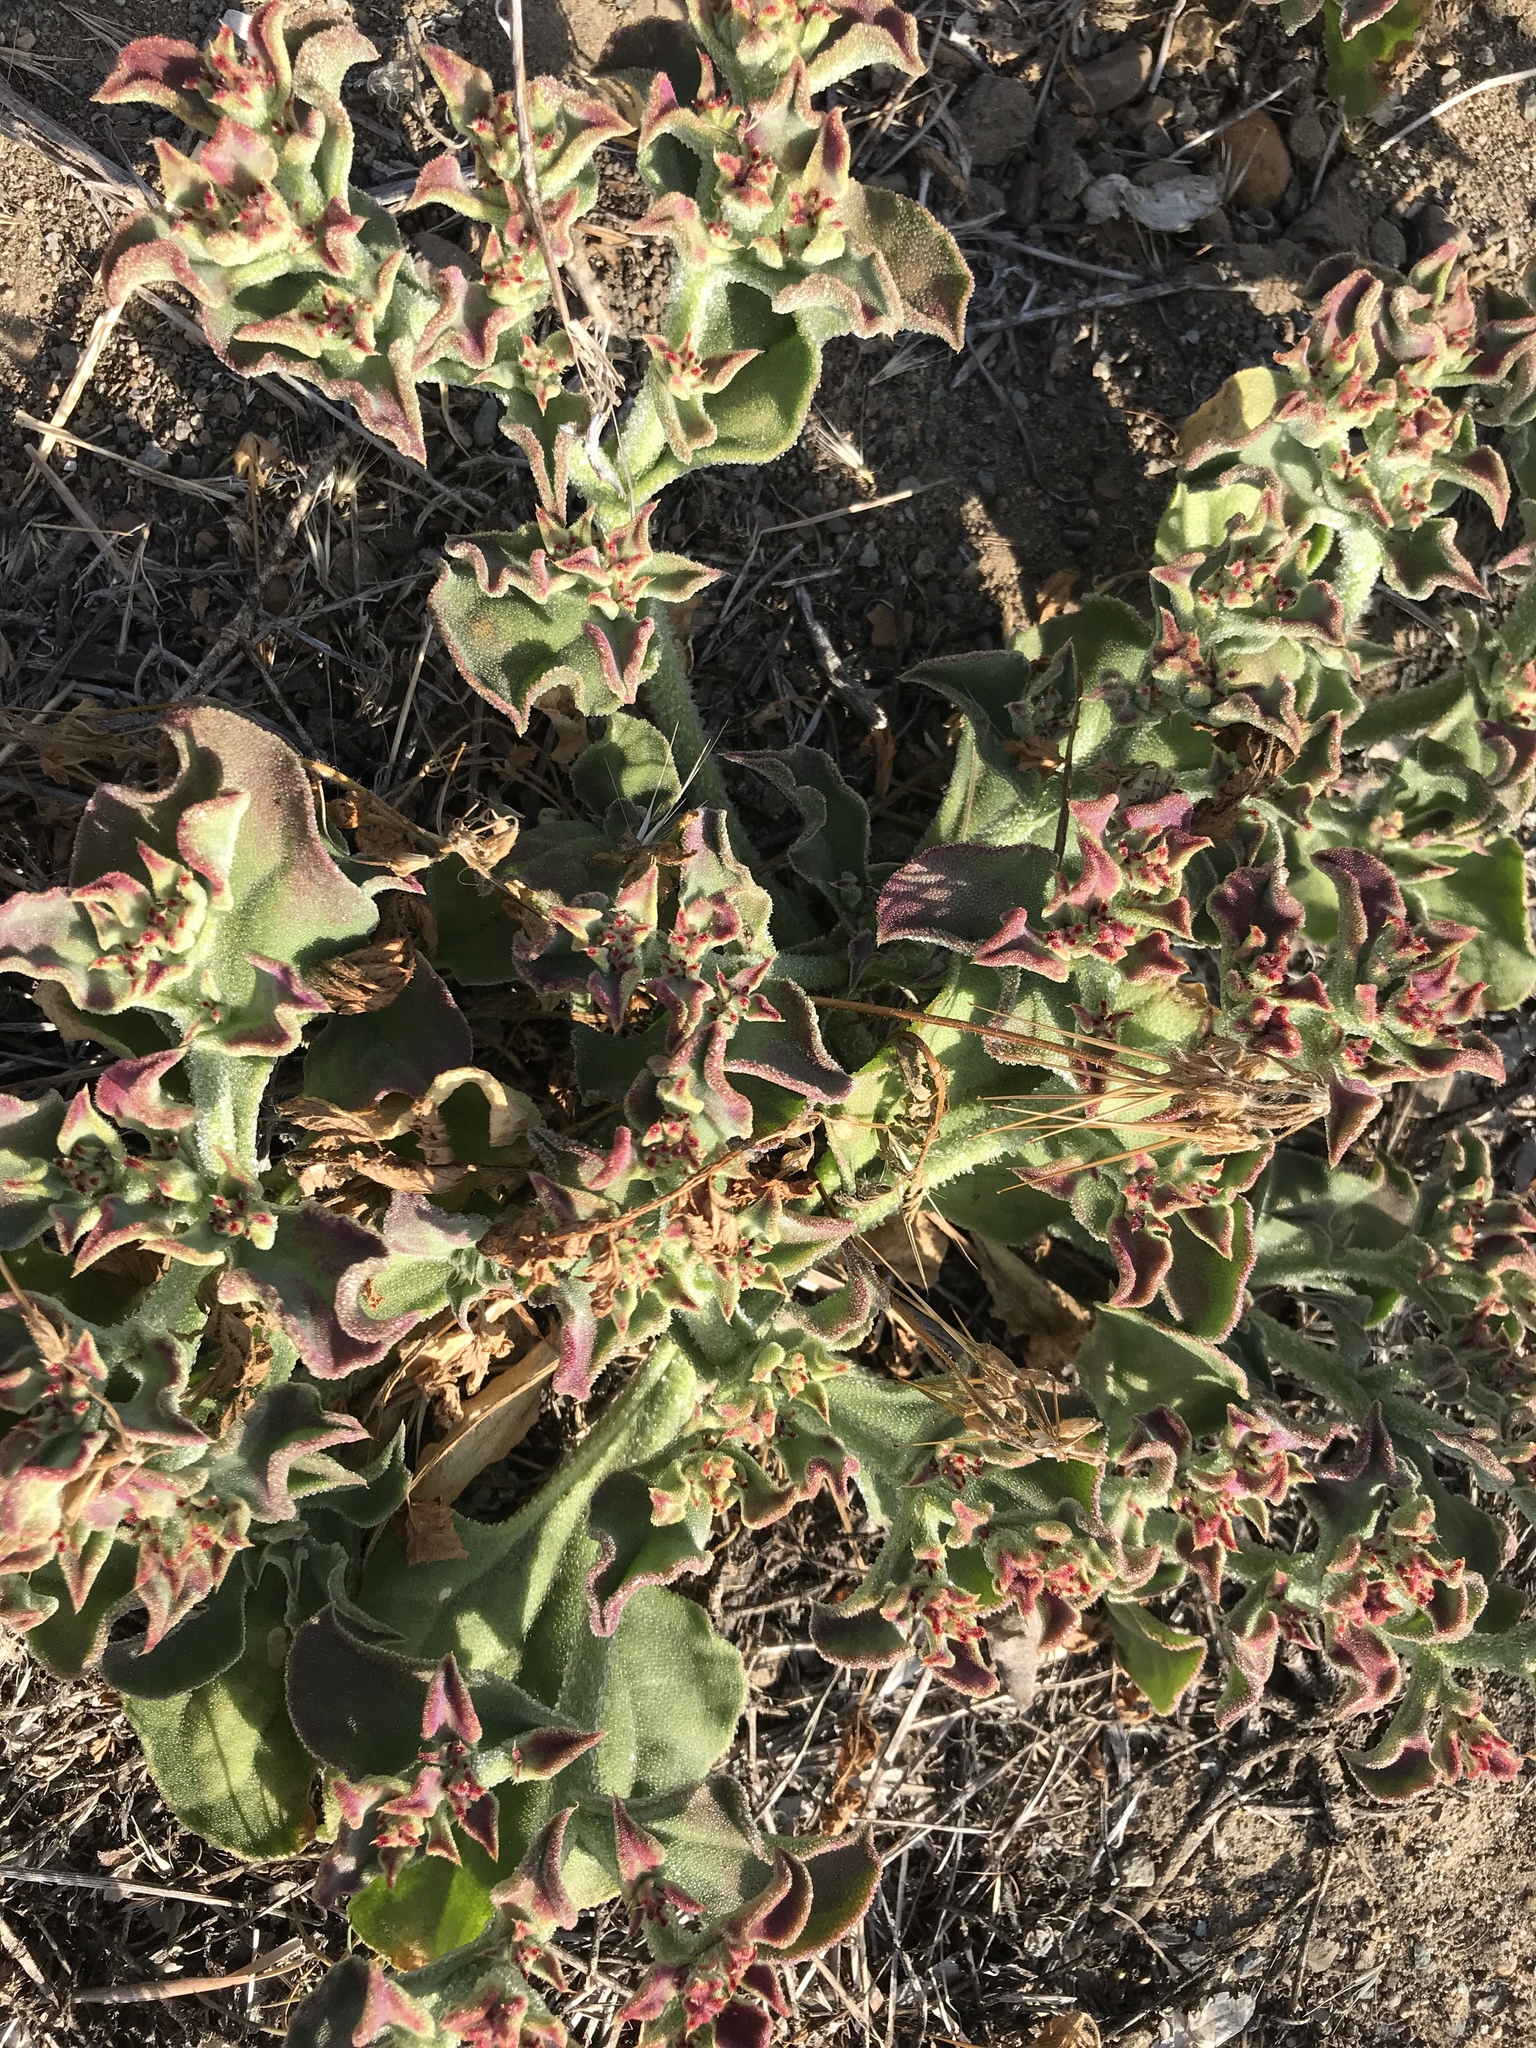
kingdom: Plantae
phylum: Tracheophyta
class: Magnoliopsida
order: Caryophyllales
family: Aizoaceae
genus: Mesembryanthemum
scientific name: Mesembryanthemum crystallinum
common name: Common iceplant
